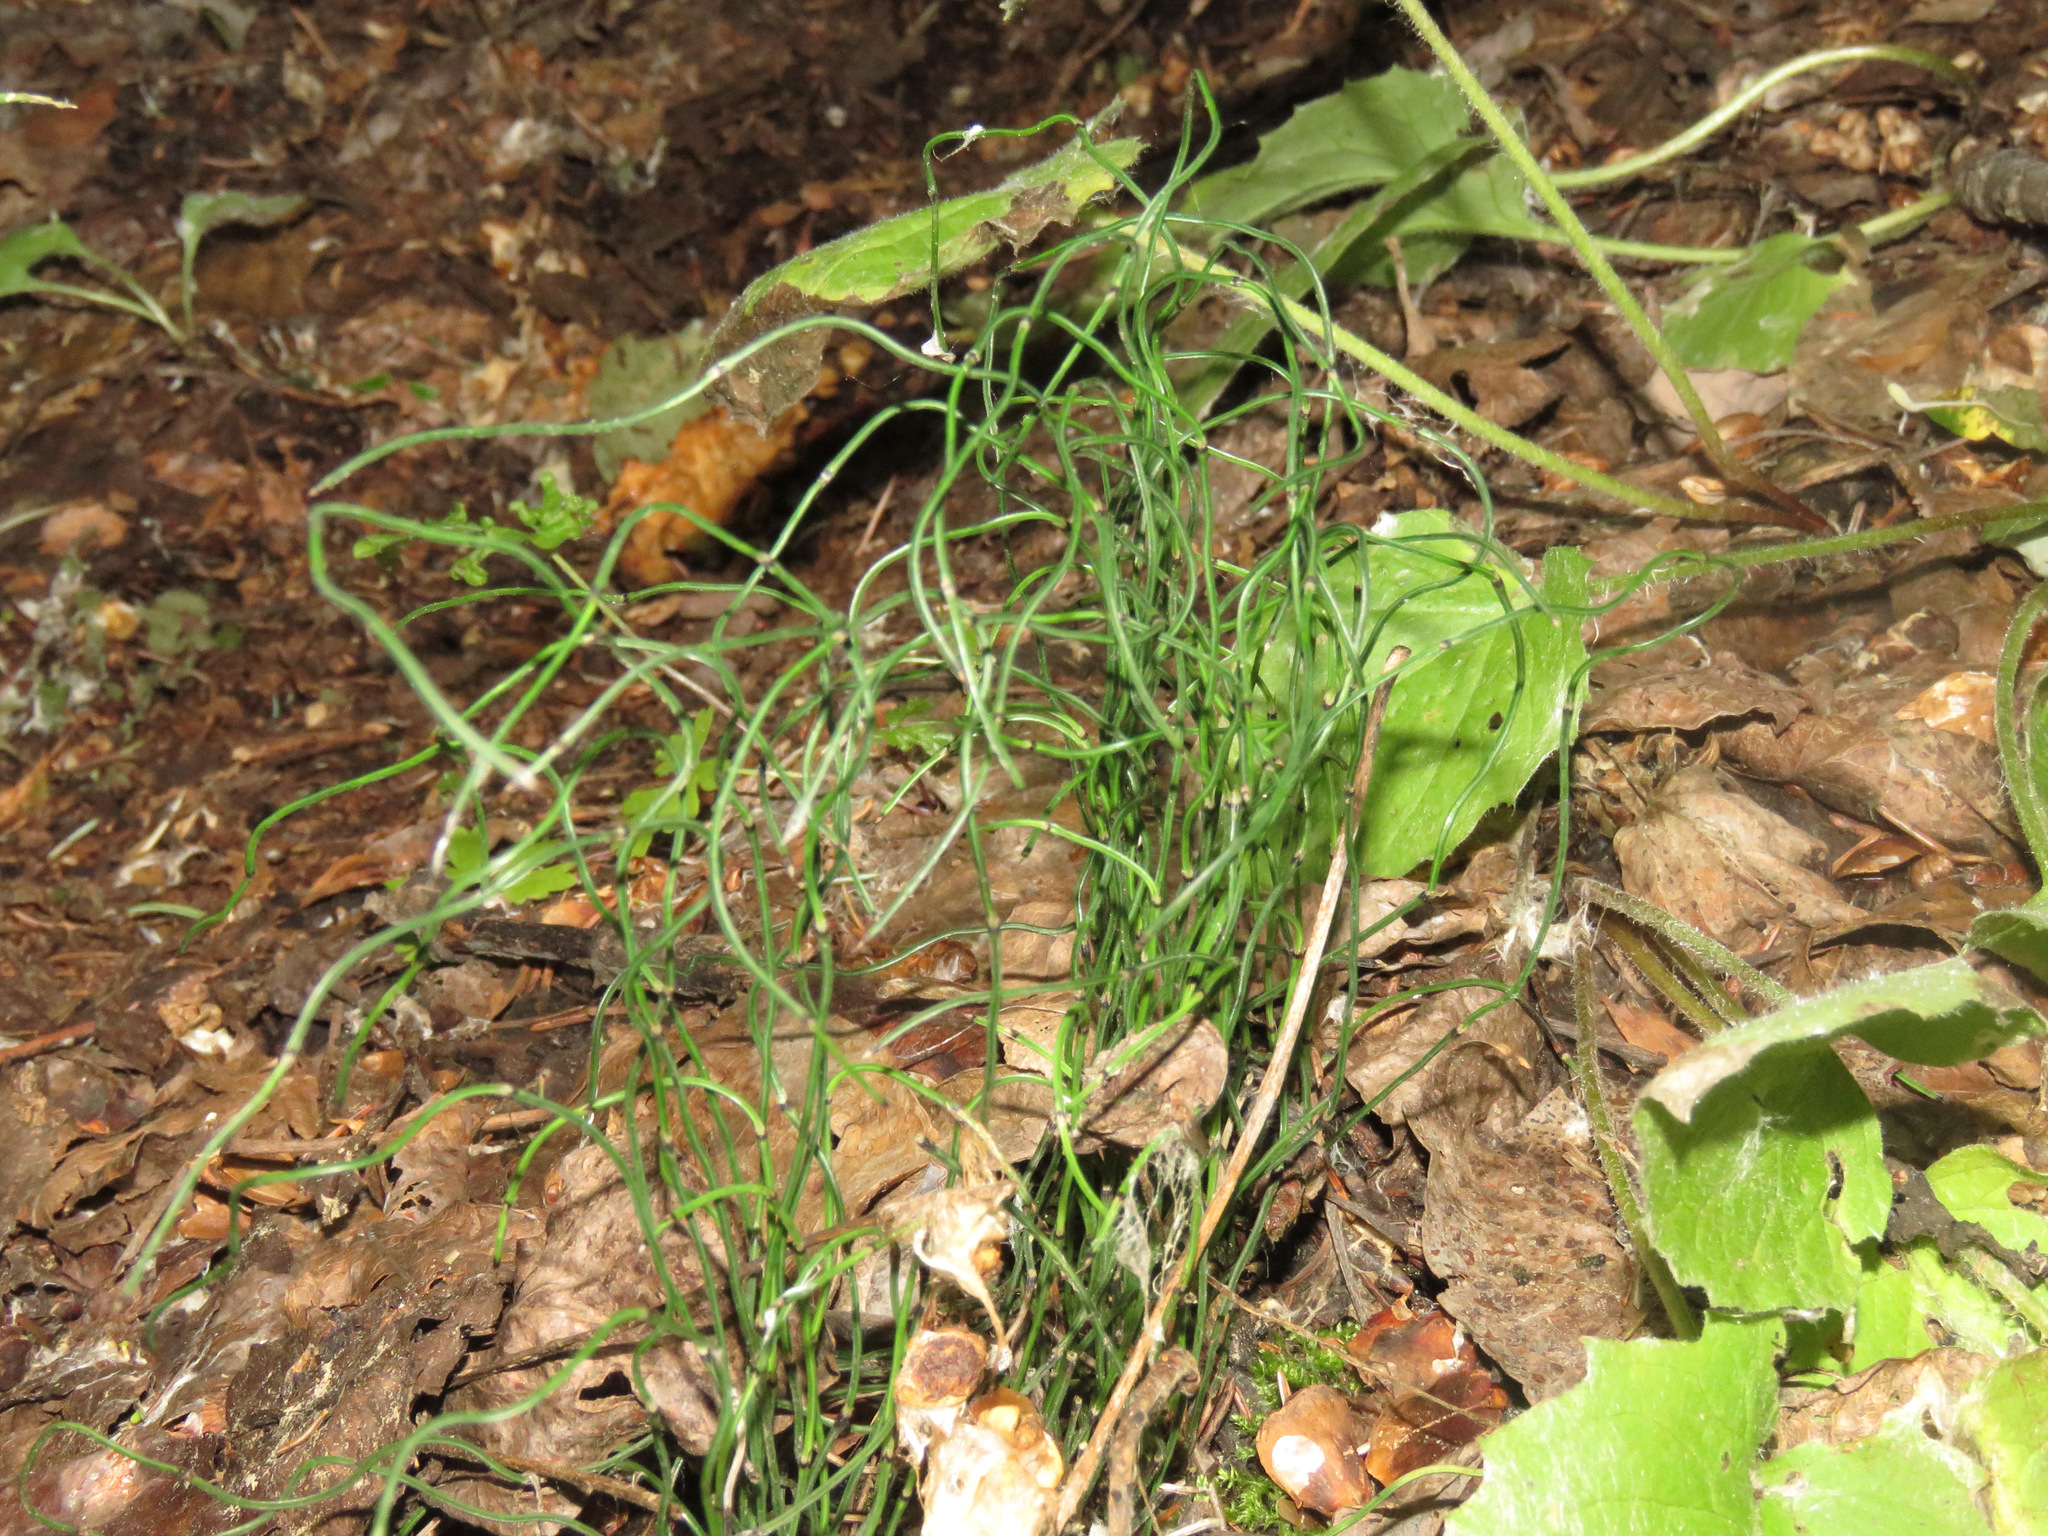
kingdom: Plantae
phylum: Tracheophyta
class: Polypodiopsida
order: Equisetales
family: Equisetaceae
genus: Equisetum
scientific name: Equisetum scirpoides
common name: Delicate horsetail
